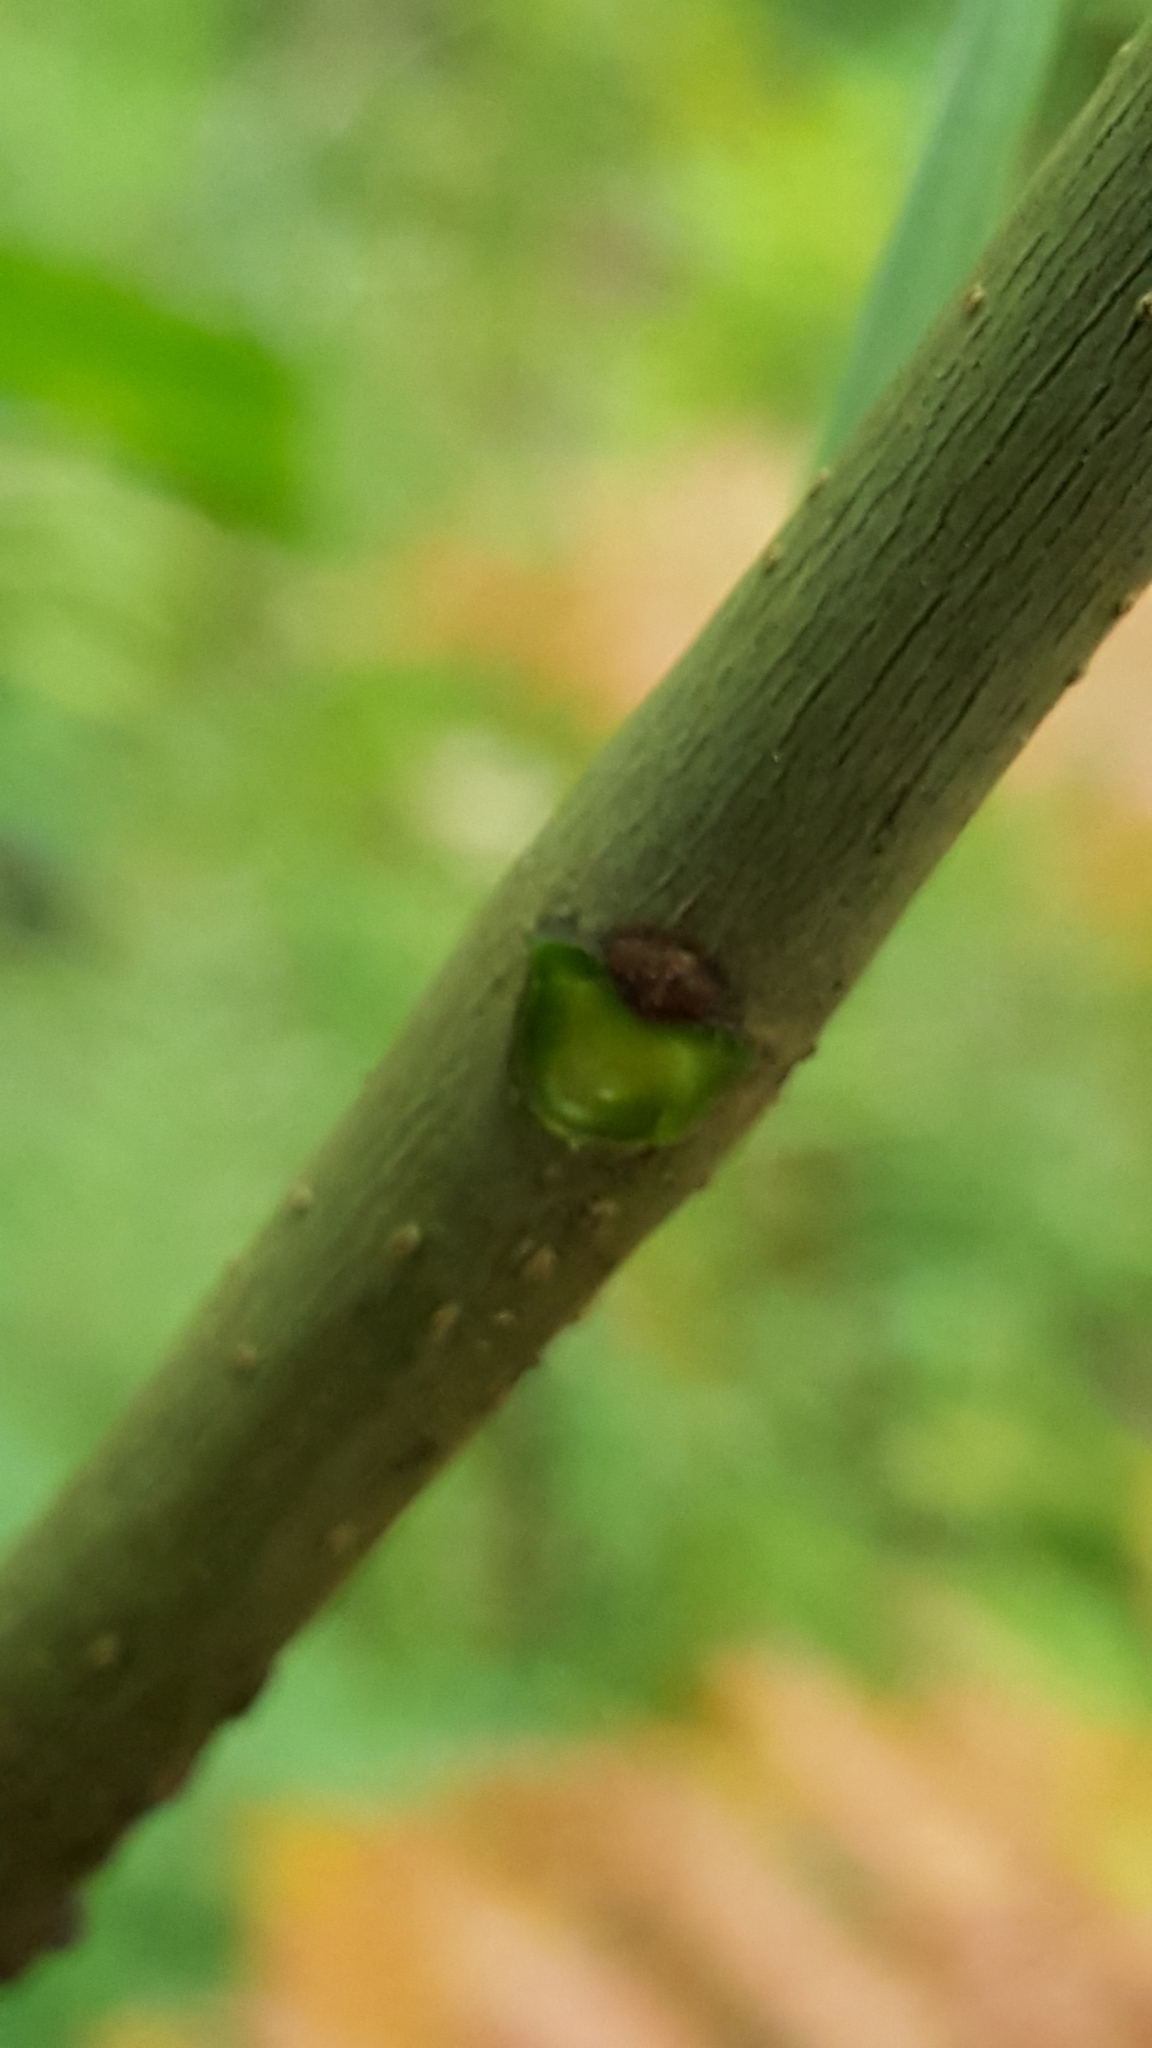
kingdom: Plantae
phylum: Tracheophyta
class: Magnoliopsida
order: Lamiales
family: Oleaceae
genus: Fraxinus
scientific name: Fraxinus pennsylvanica
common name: Green ash
